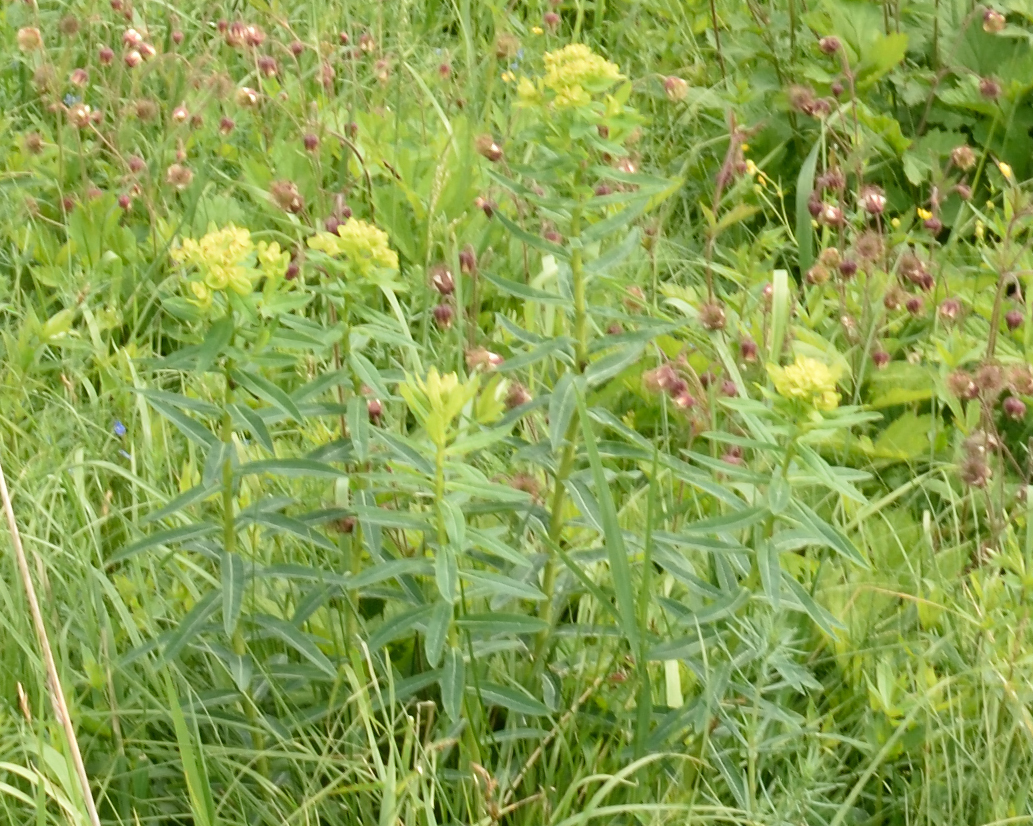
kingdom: Plantae
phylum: Tracheophyta
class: Magnoliopsida
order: Malpighiales
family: Euphorbiaceae
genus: Euphorbia
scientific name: Euphorbia semivillosa
